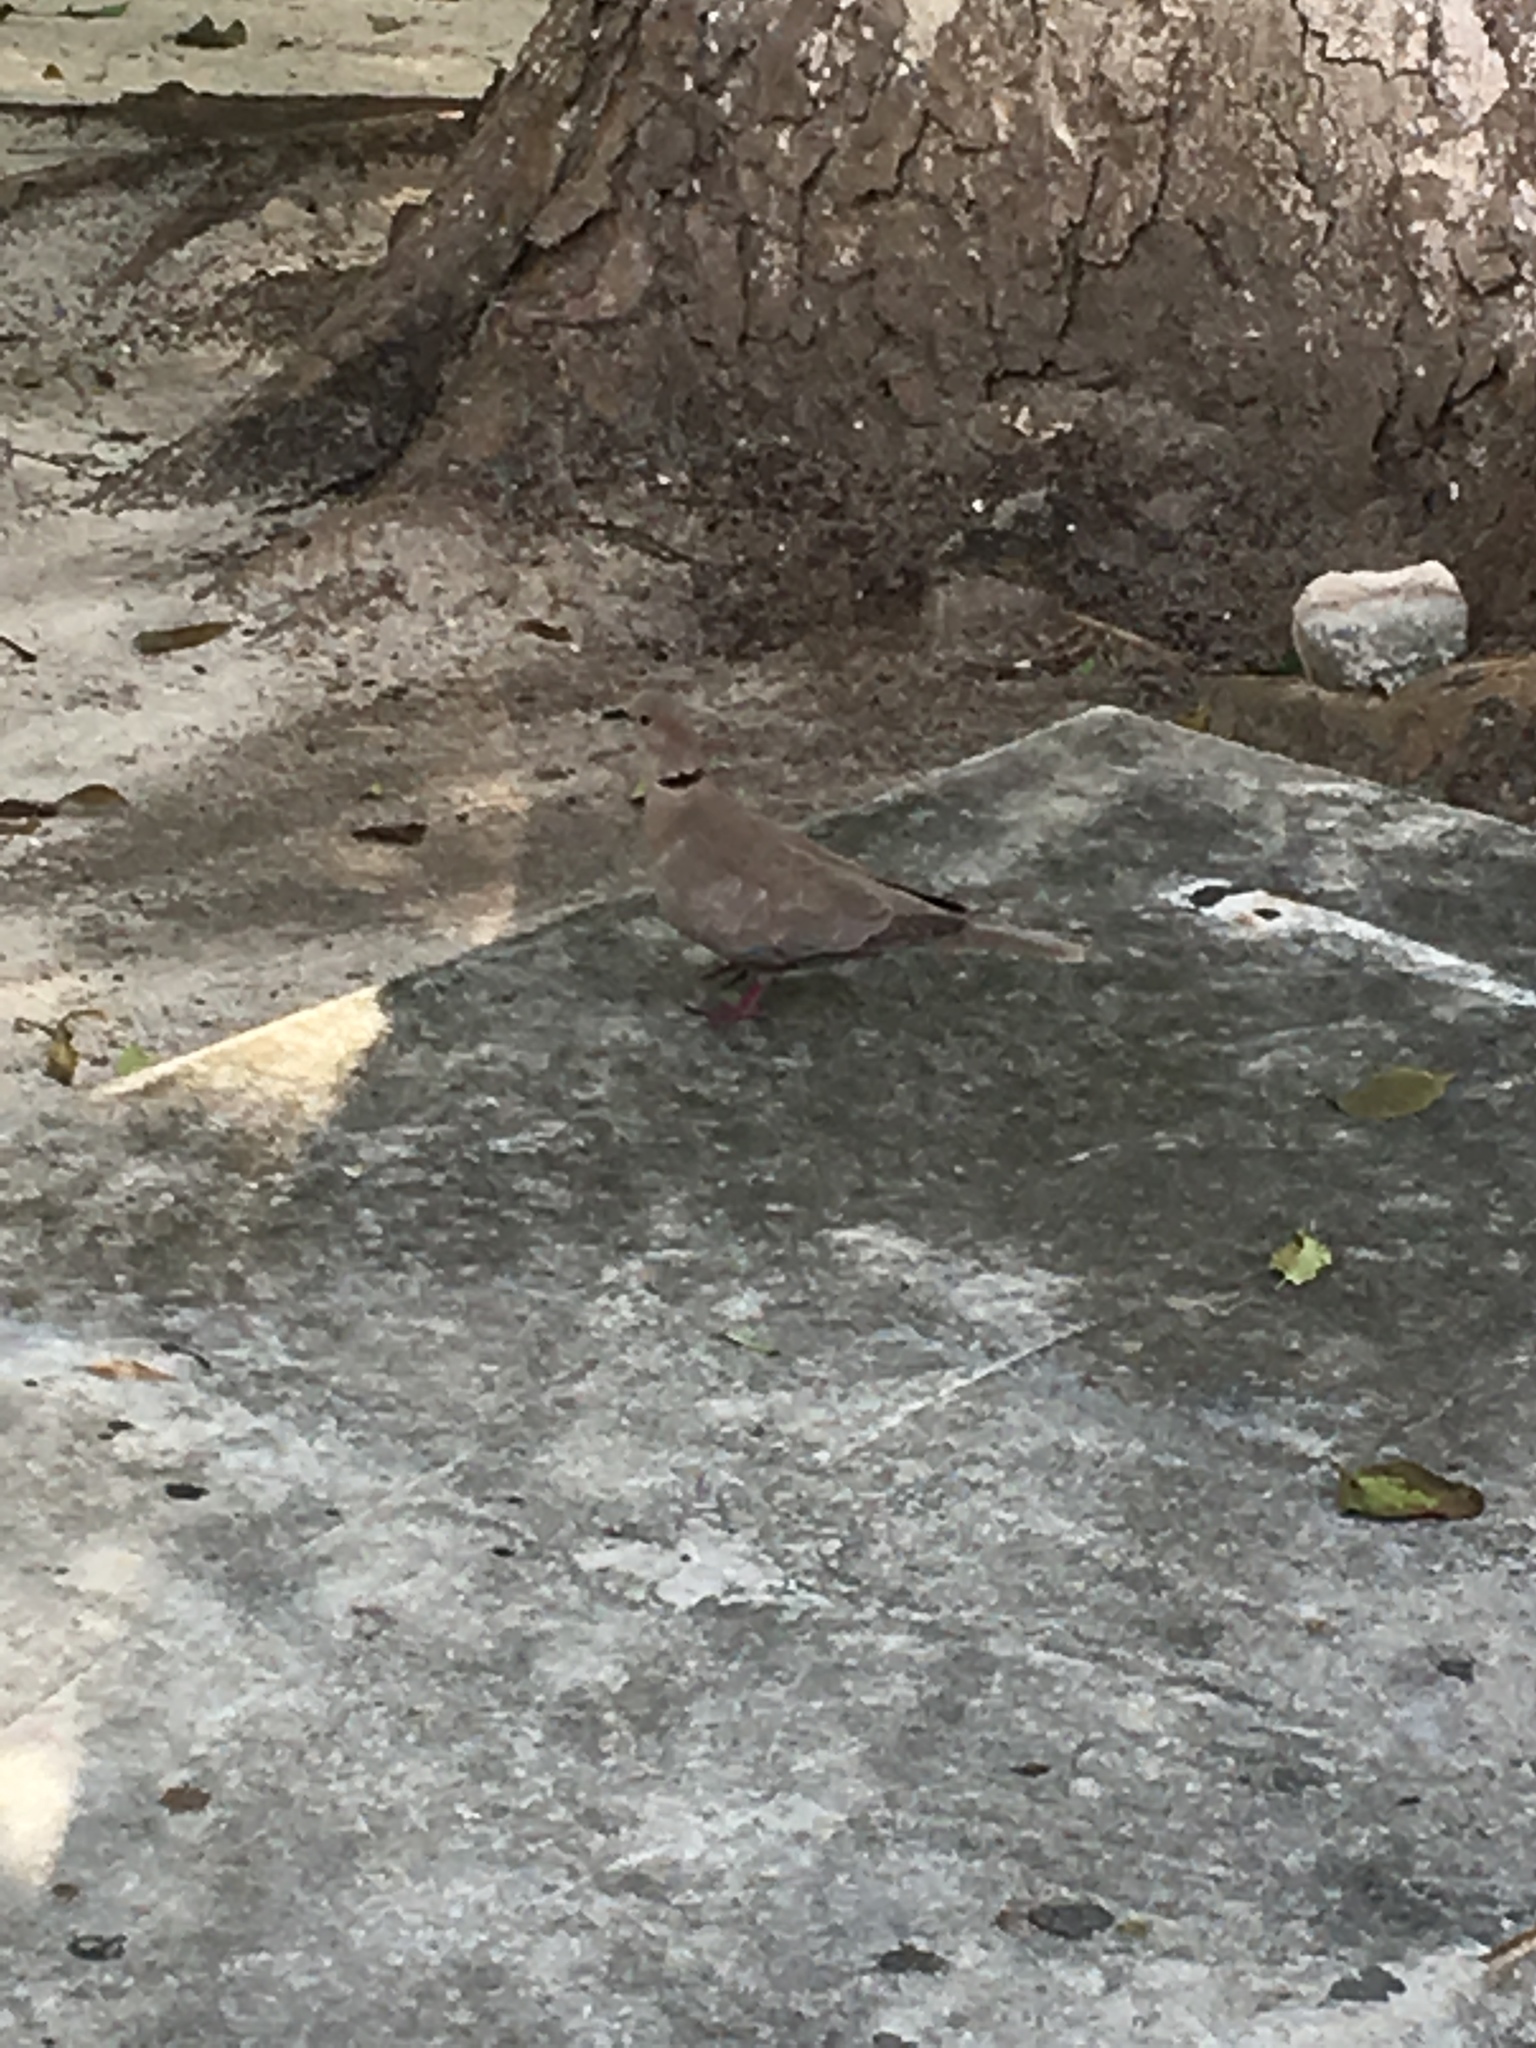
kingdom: Animalia
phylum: Chordata
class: Aves
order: Columbiformes
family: Columbidae
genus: Streptopelia
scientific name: Streptopelia decaocto
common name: Eurasian collared dove
